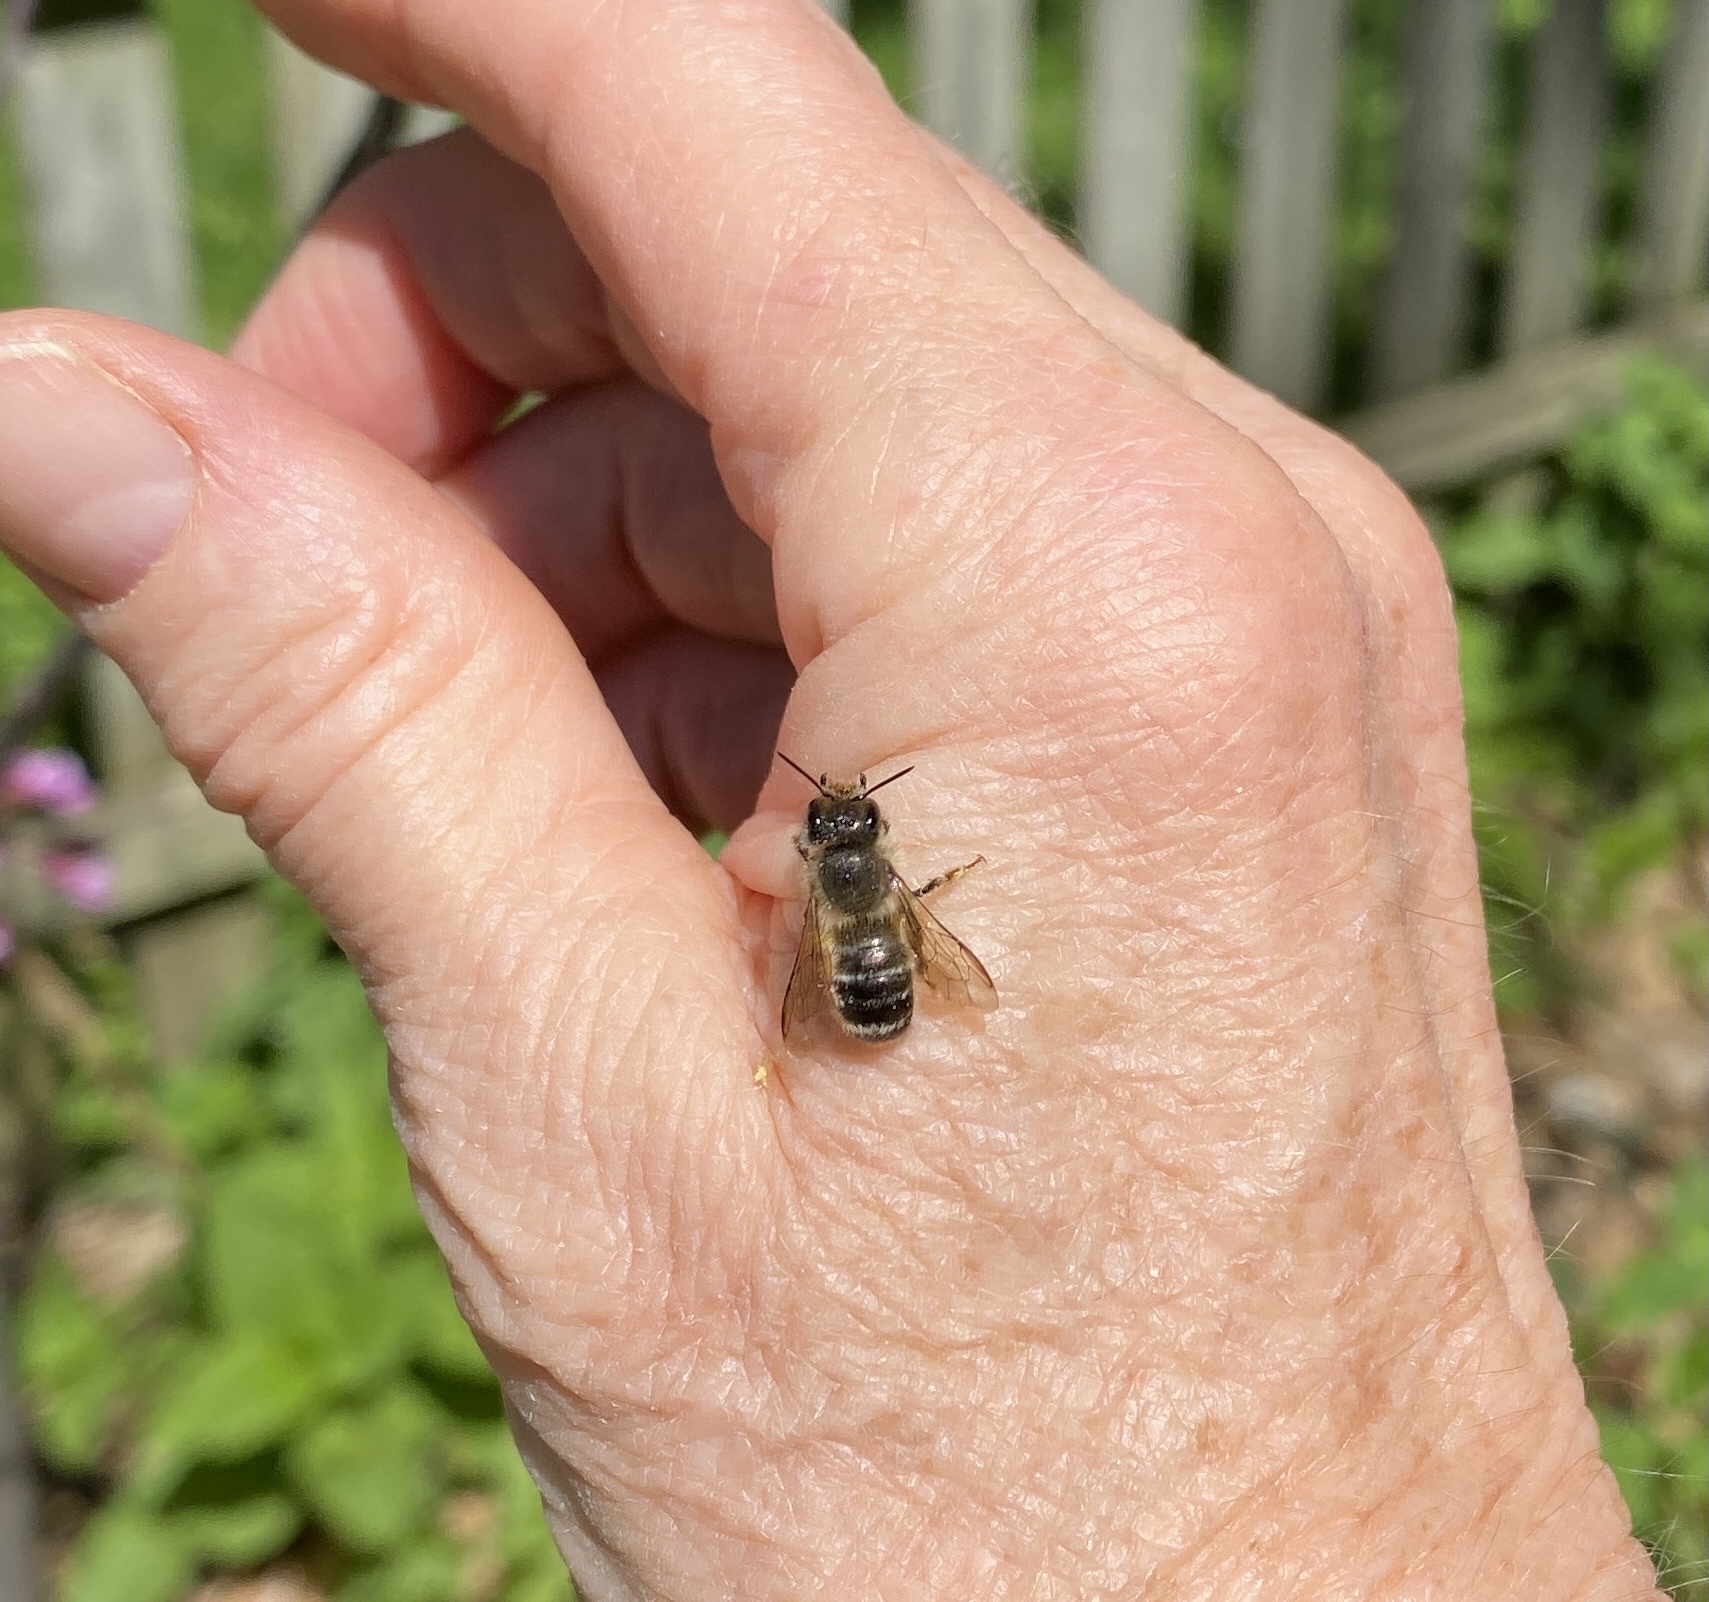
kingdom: Animalia
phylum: Arthropoda
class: Insecta
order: Hymenoptera
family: Megachilidae
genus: Osmia
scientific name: Osmia cornifrons
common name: Horn-faced bee
